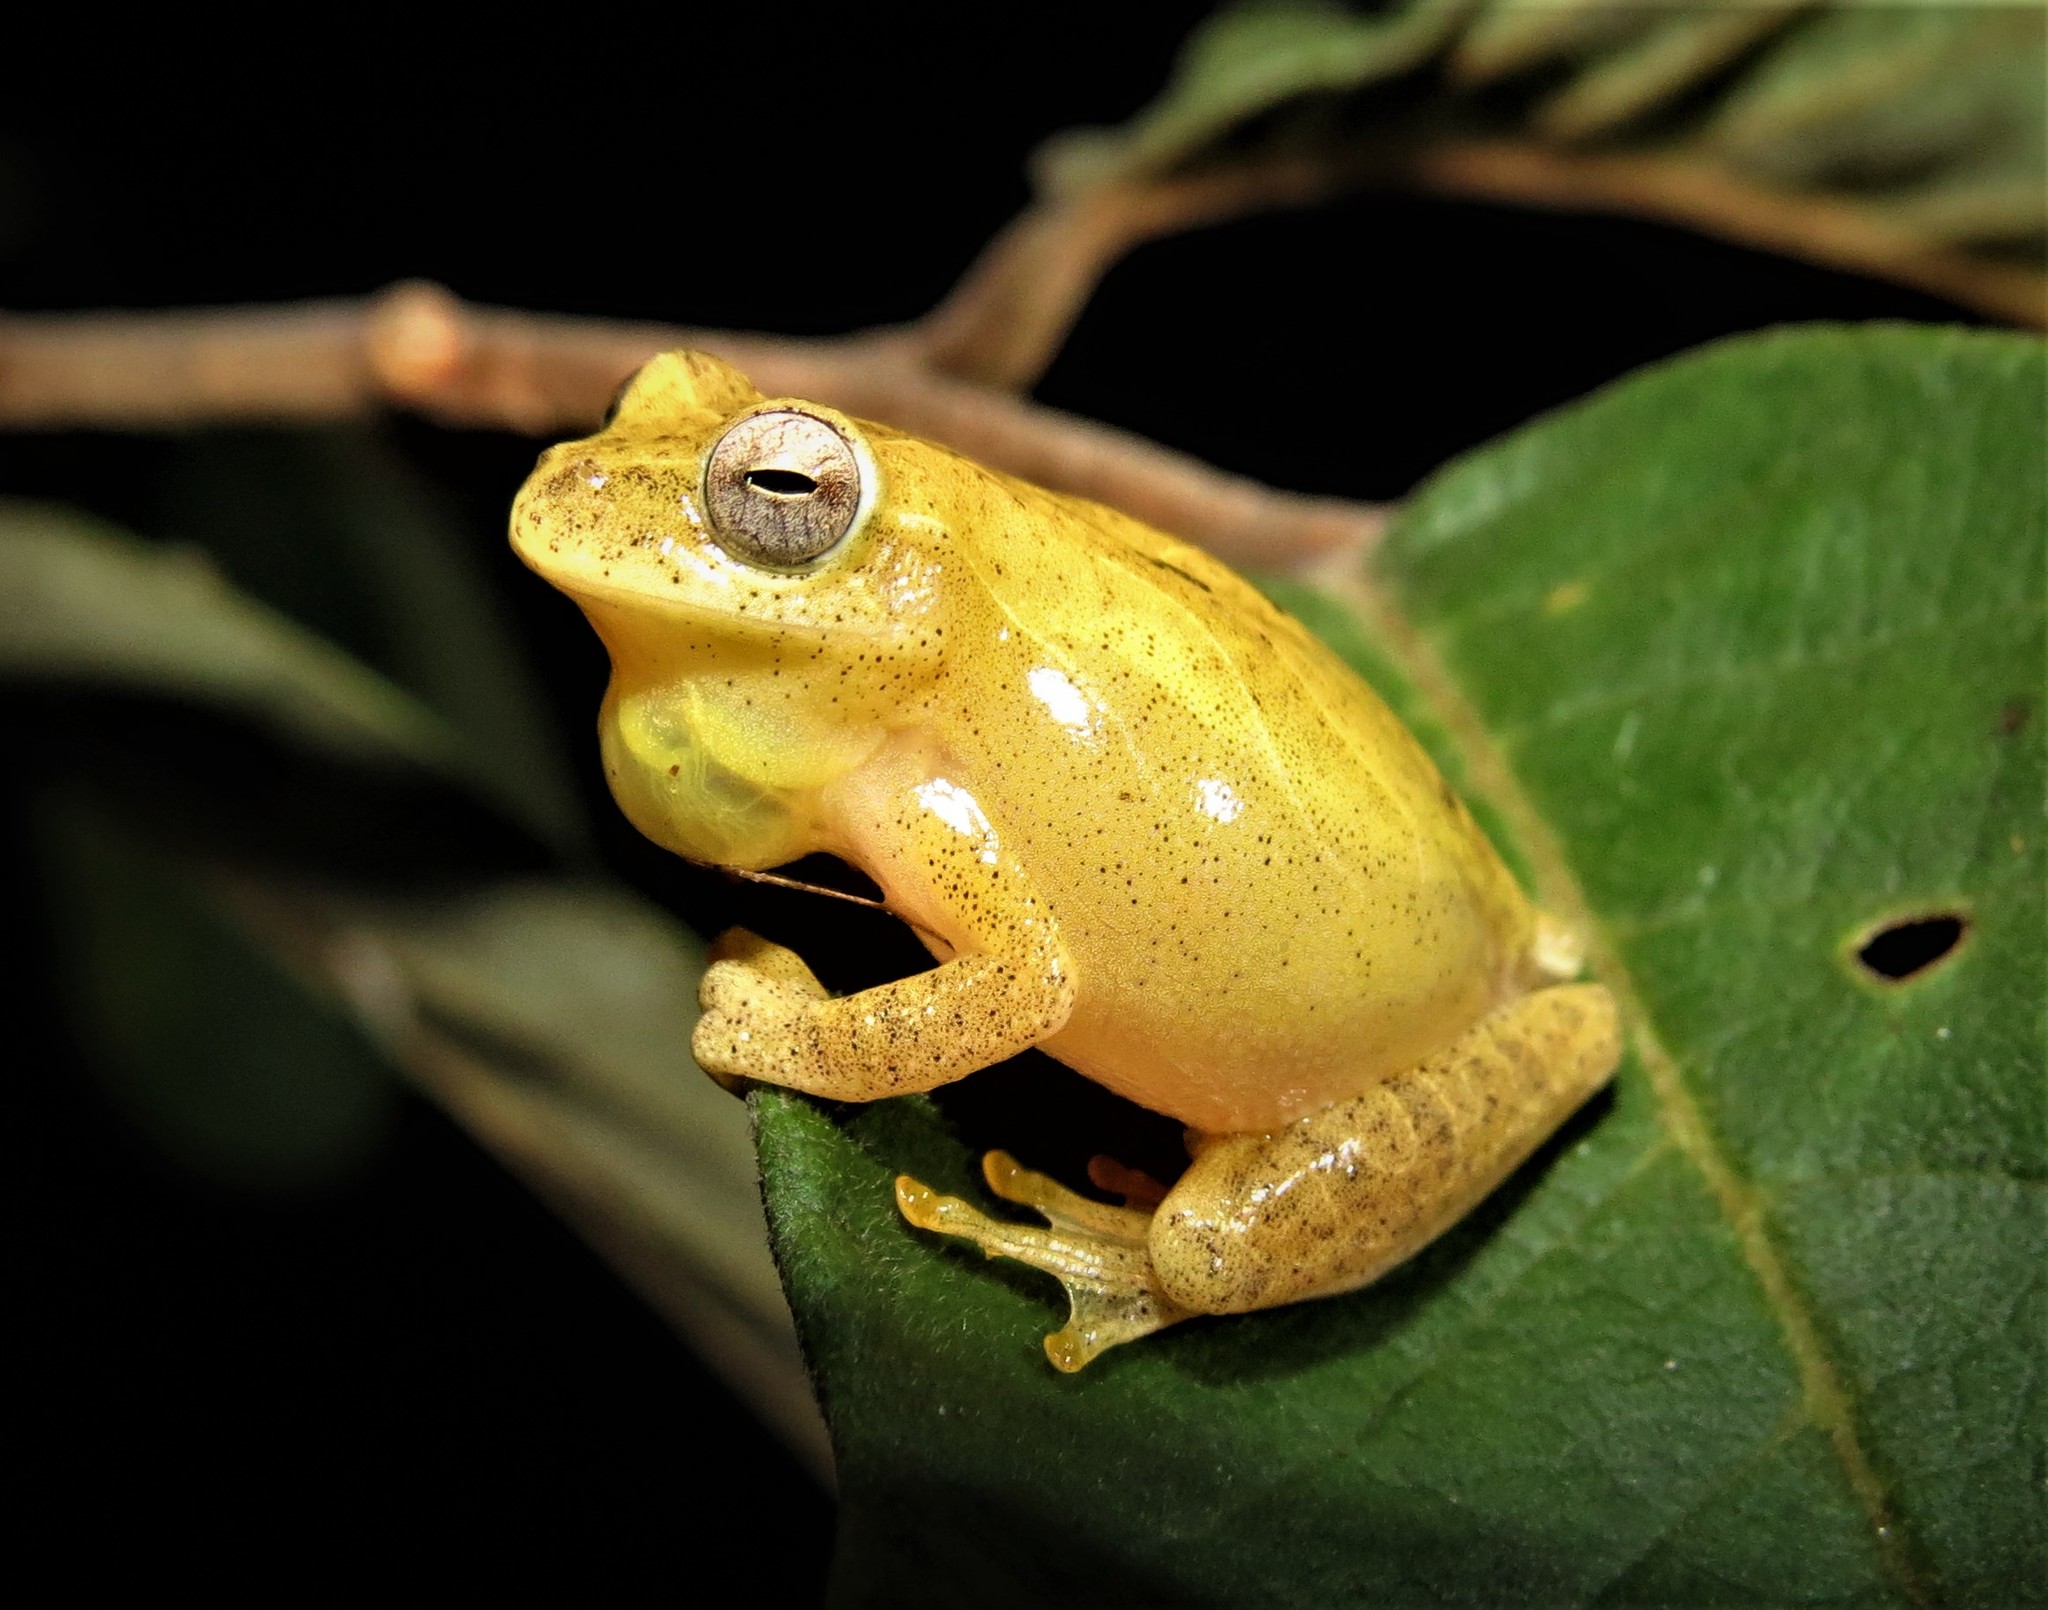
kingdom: Animalia
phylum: Chordata
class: Amphibia
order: Anura
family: Hylidae
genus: Dendropsophus
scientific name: Dendropsophus minutus
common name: Lesser treefrog
